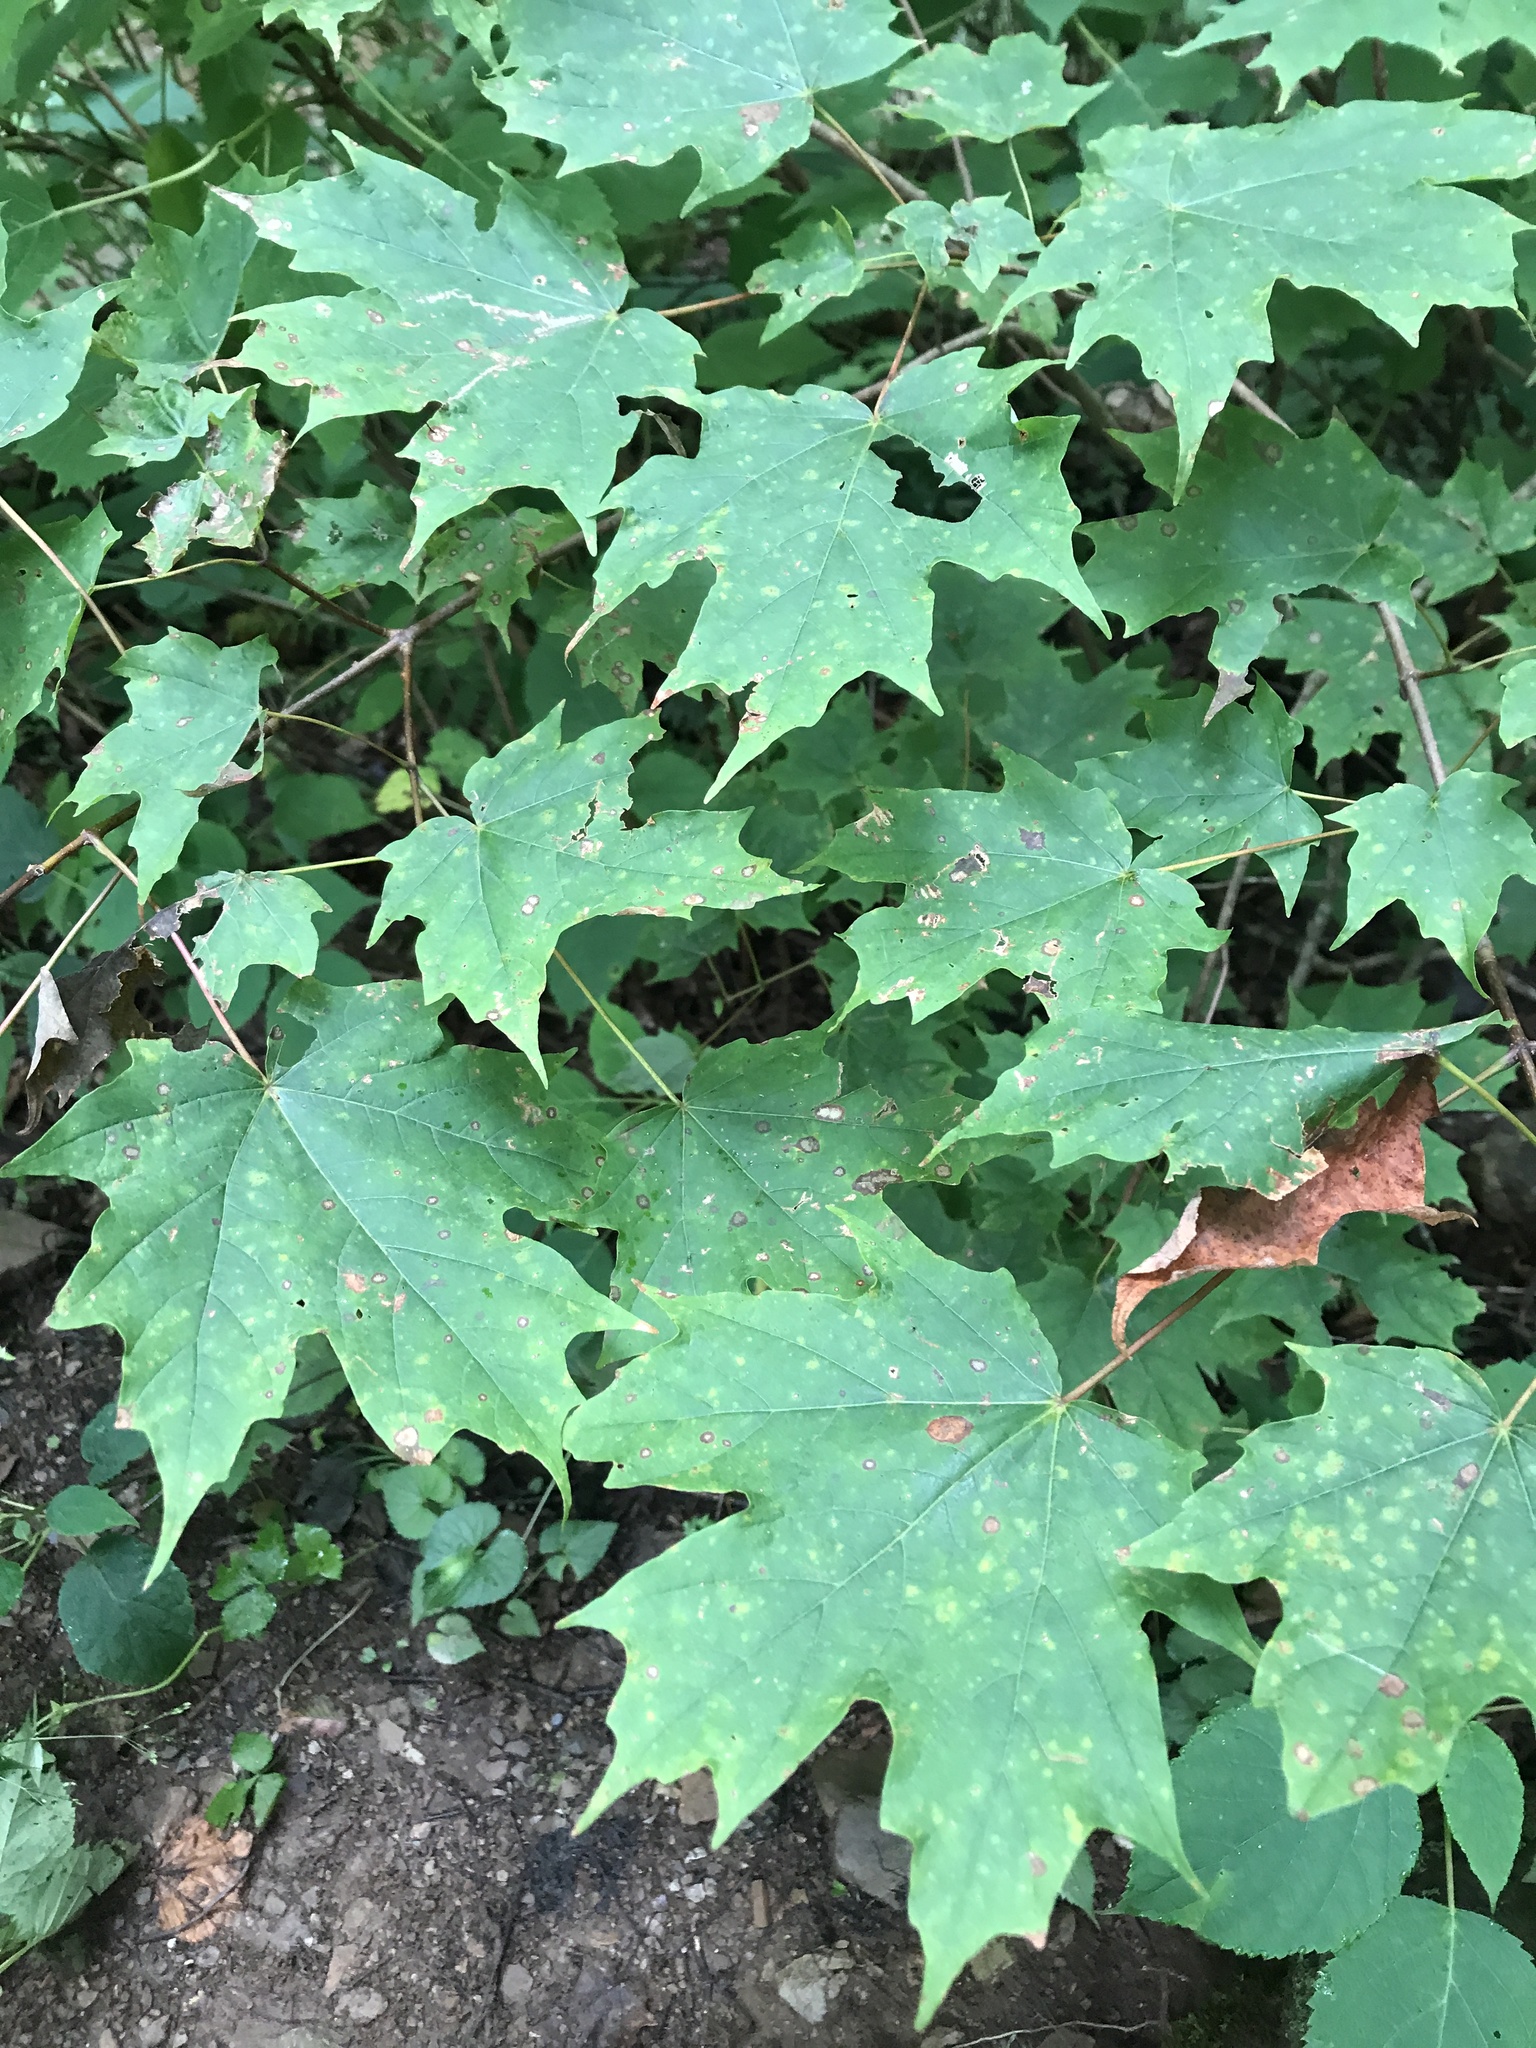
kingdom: Plantae
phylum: Tracheophyta
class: Magnoliopsida
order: Sapindales
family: Sapindaceae
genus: Acer
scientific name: Acer saccharum
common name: Sugar maple
